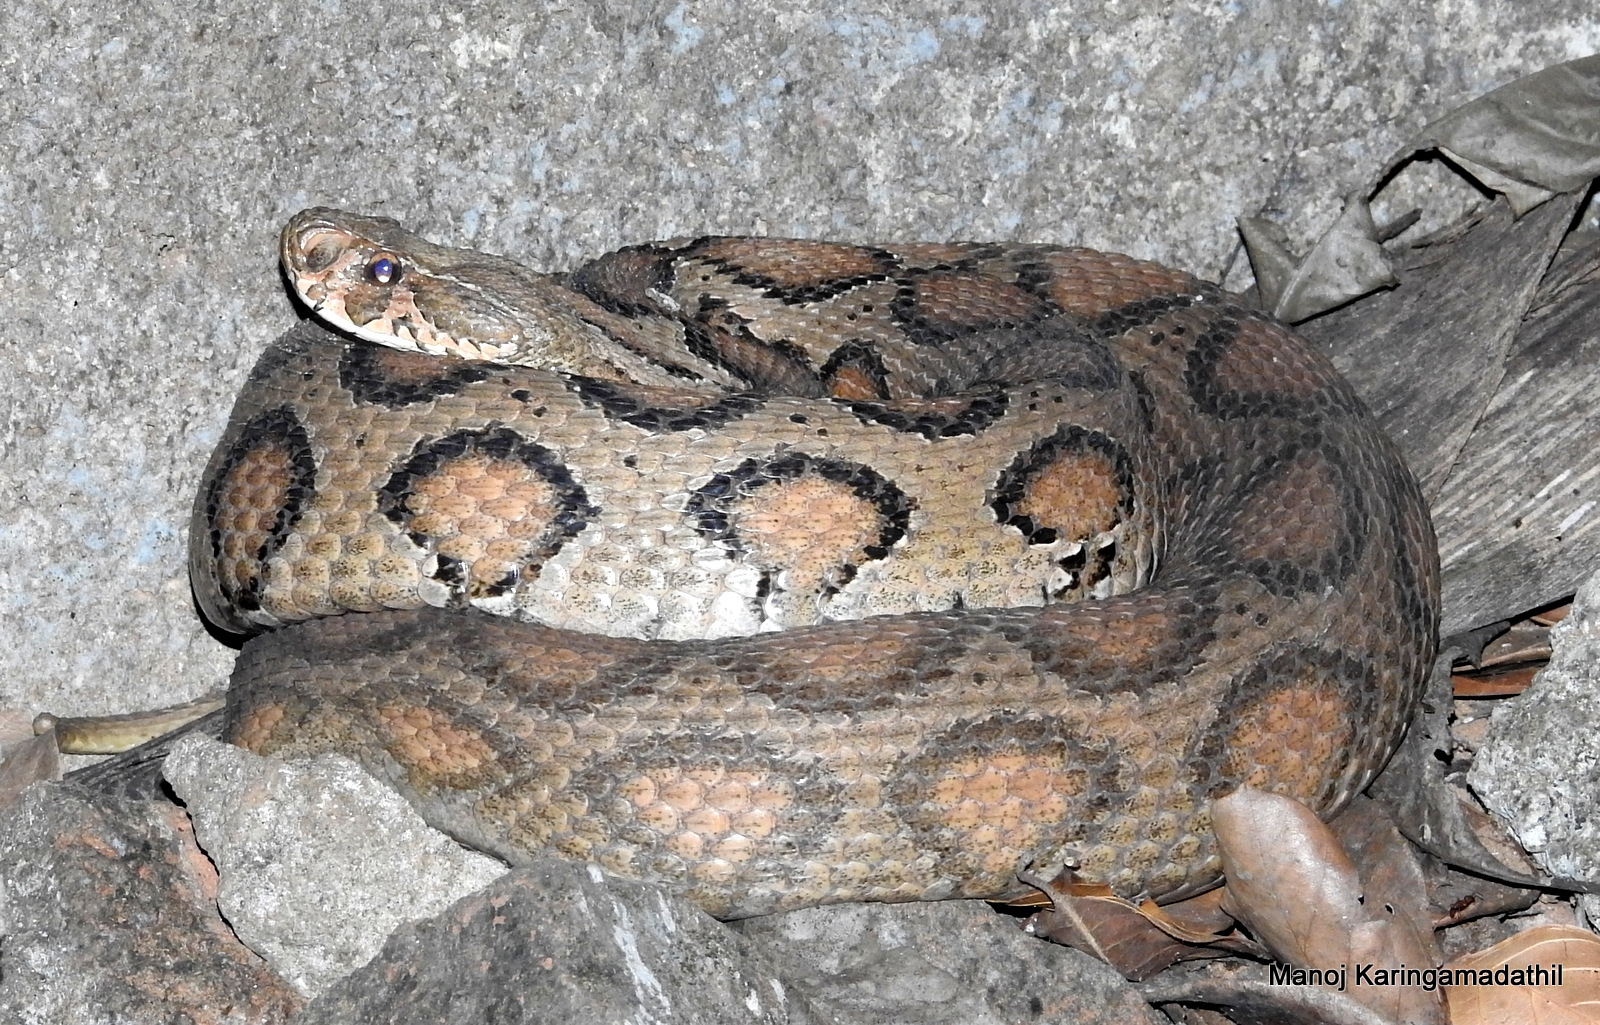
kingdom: Animalia
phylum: Chordata
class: Squamata
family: Viperidae
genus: Daboia
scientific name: Daboia russelii
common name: Western russel’s viper
